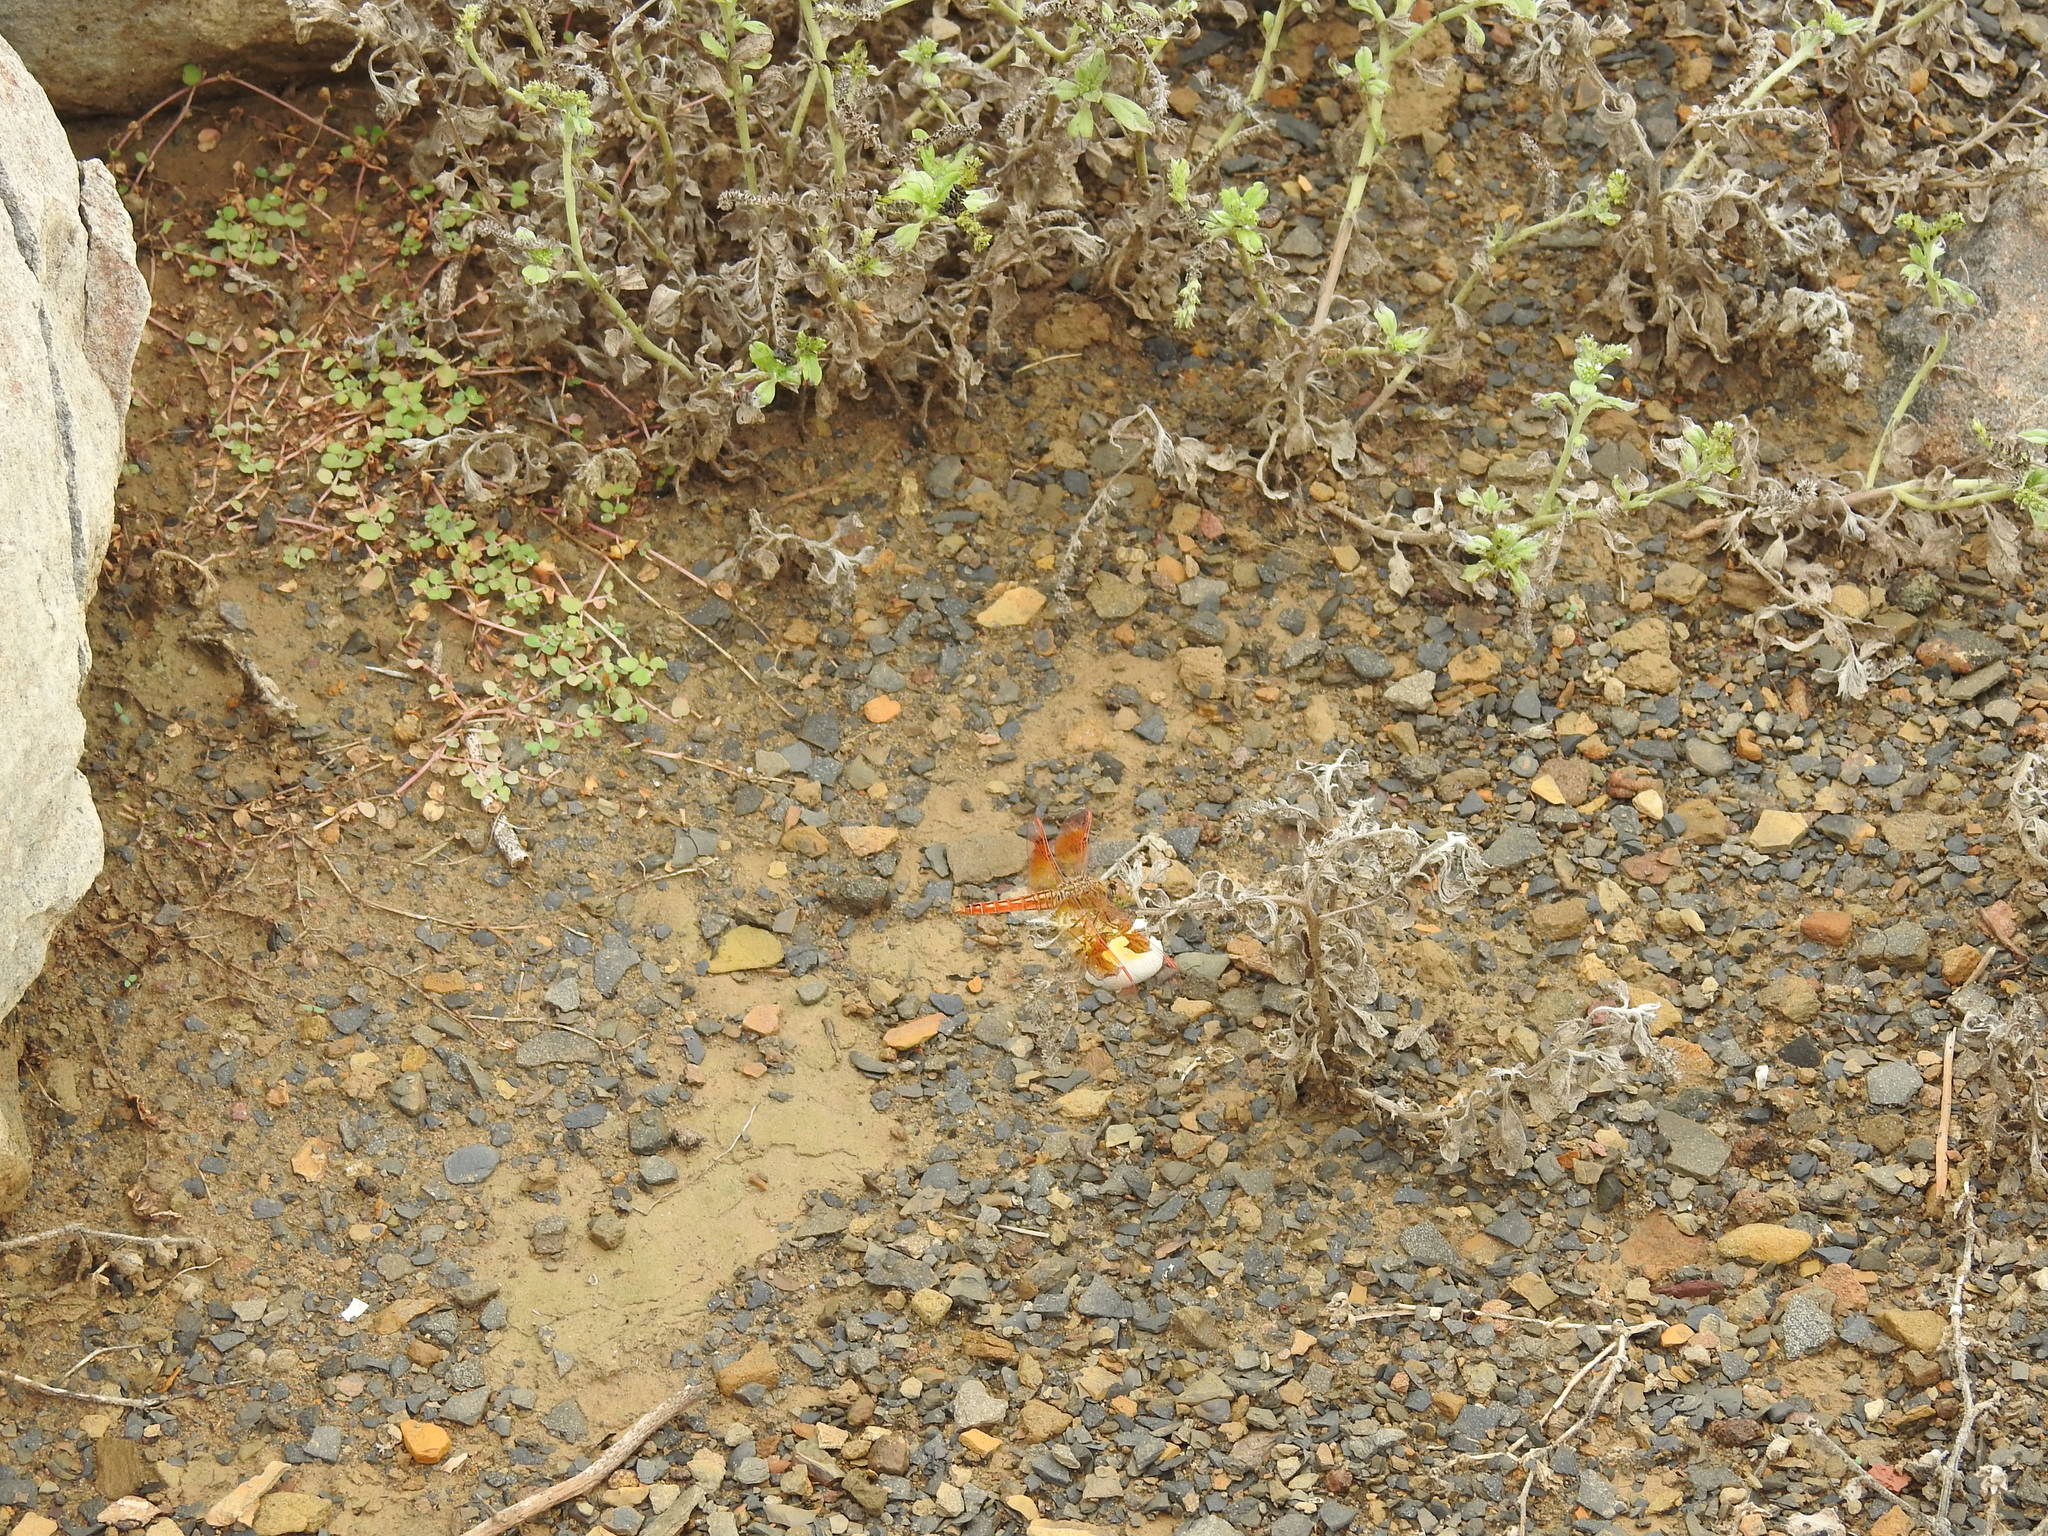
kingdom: Animalia
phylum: Arthropoda
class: Insecta
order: Odonata
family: Libellulidae
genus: Brachythemis
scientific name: Brachythemis contaminata
